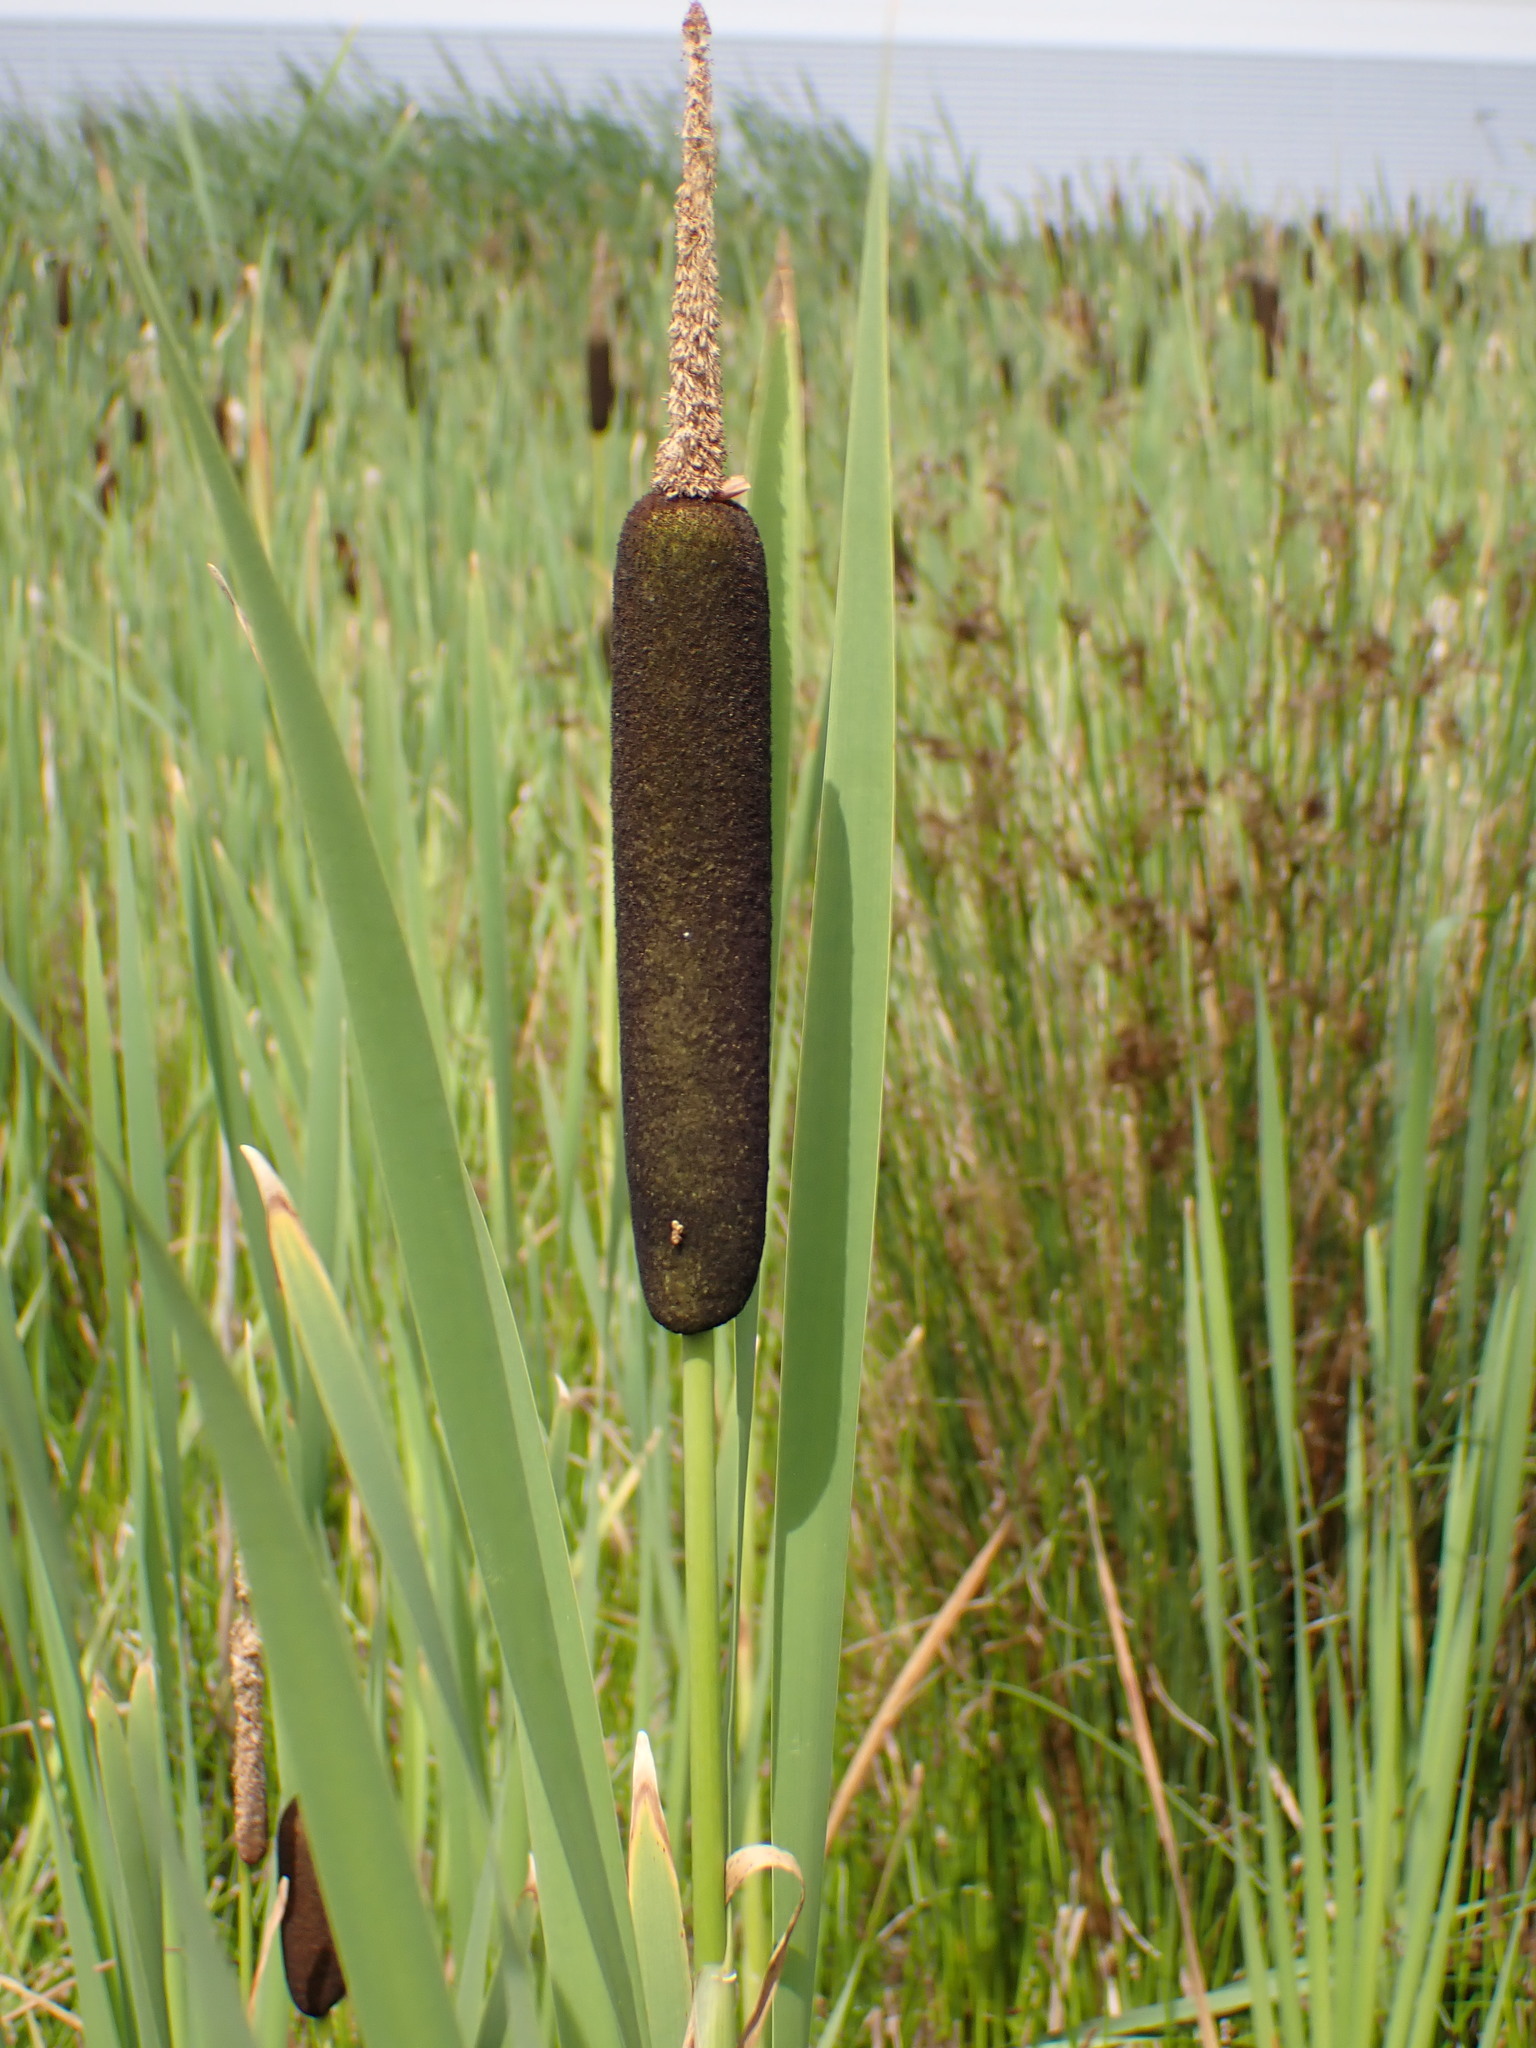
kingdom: Plantae
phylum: Tracheophyta
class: Liliopsida
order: Poales
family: Typhaceae
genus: Typha
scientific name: Typha latifolia
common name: Broadleaf cattail
